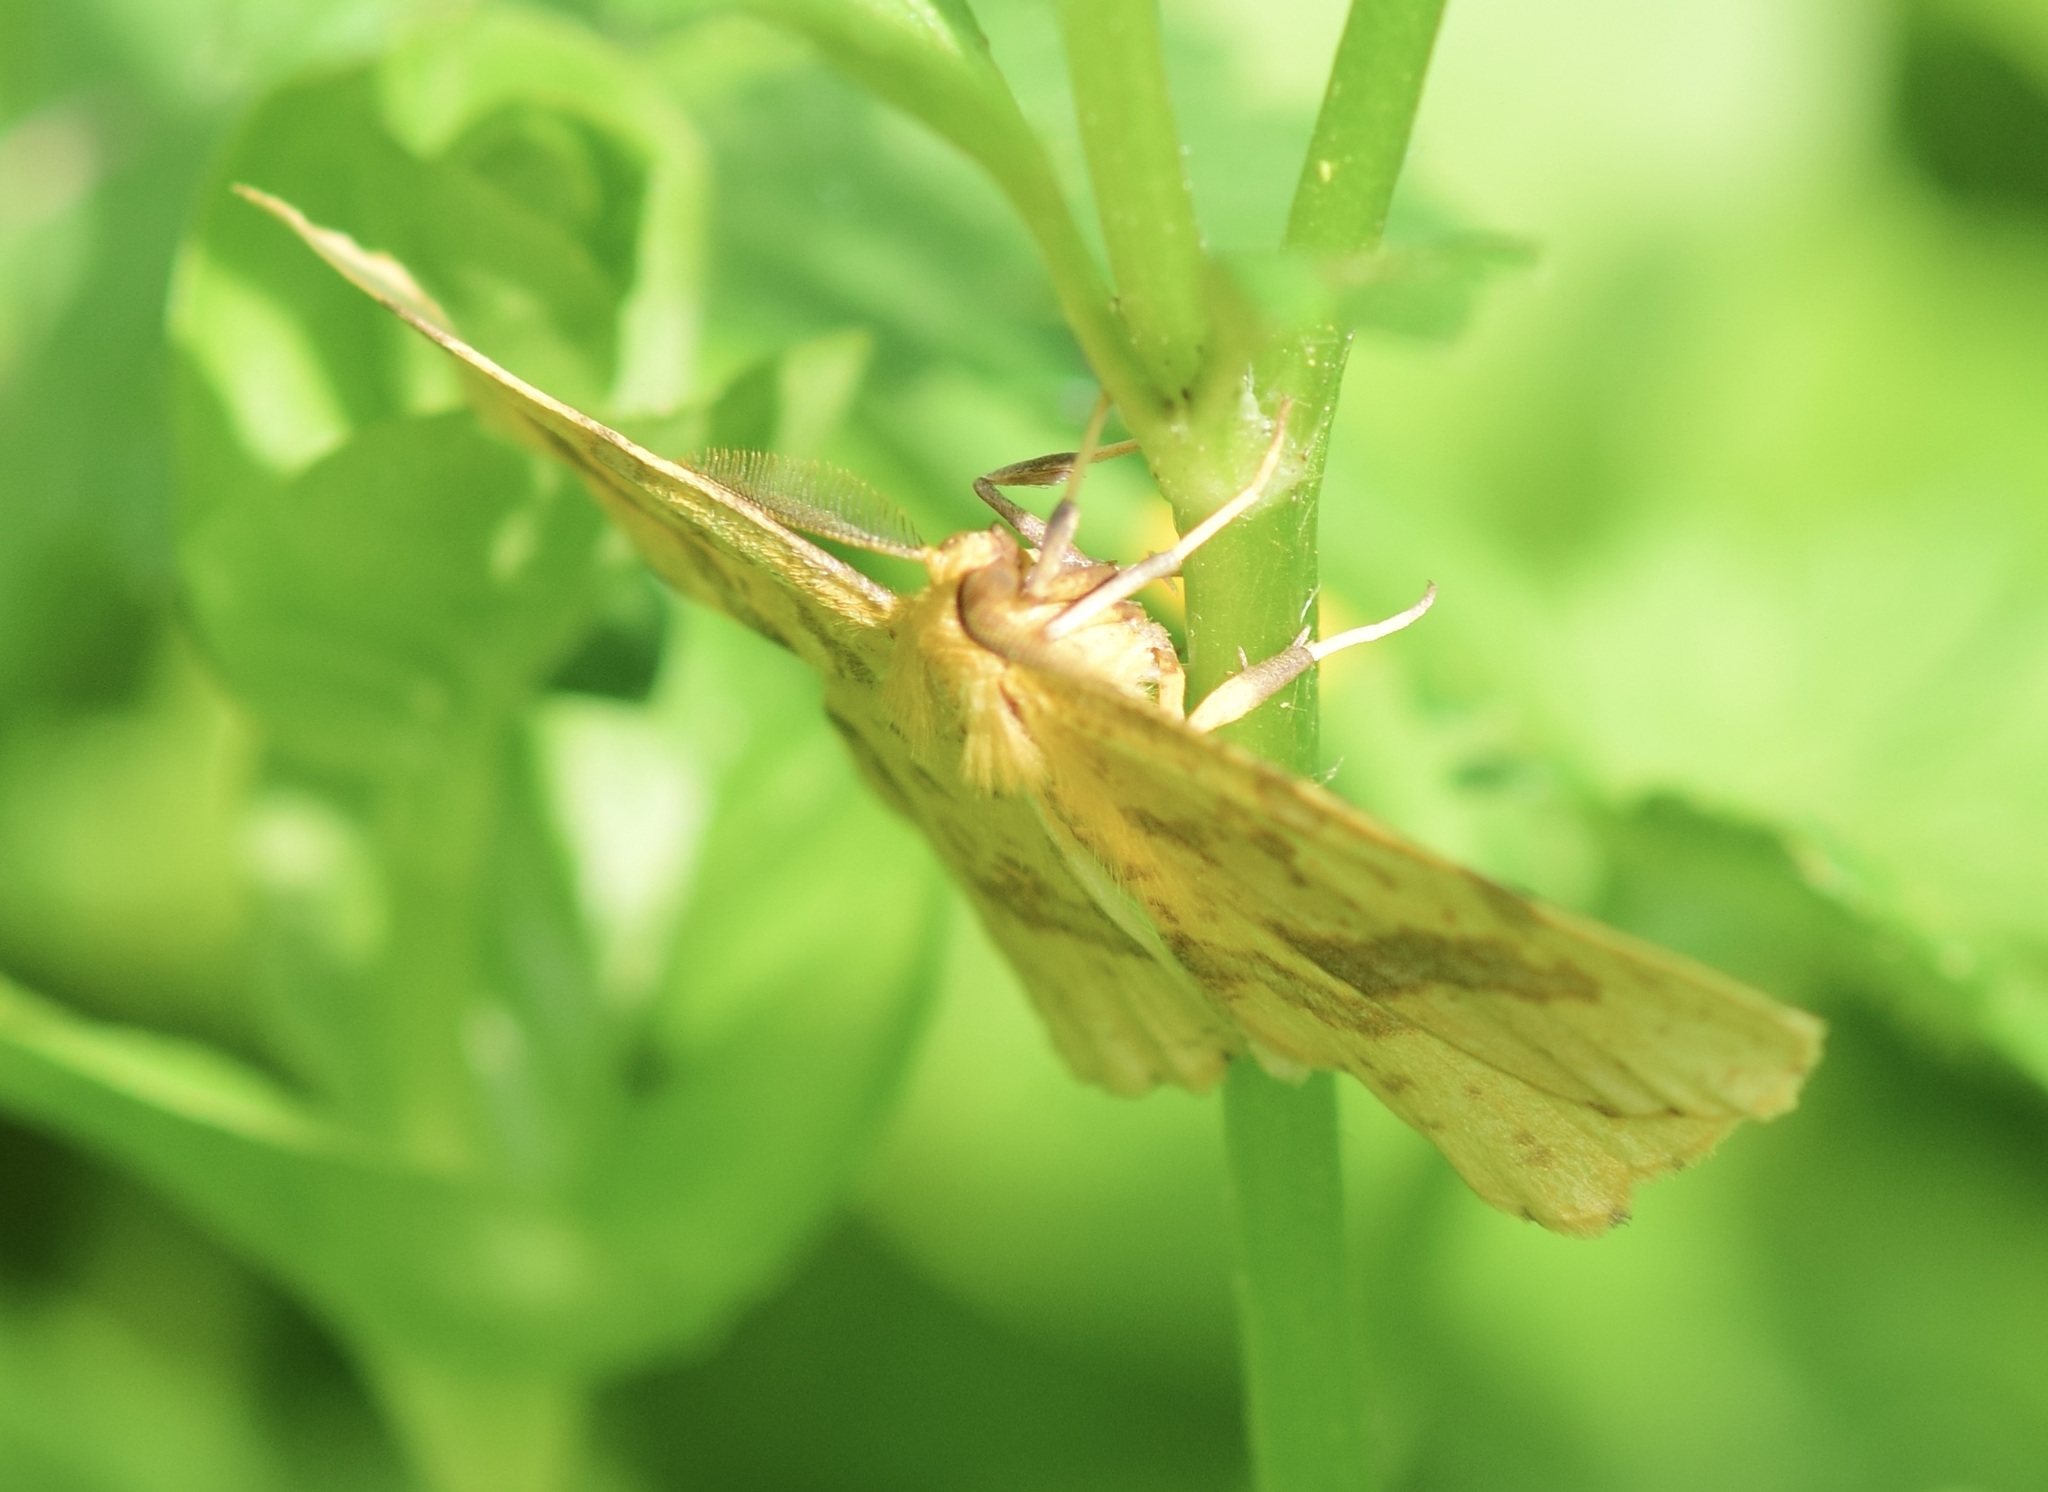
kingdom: Animalia
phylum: Arthropoda
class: Insecta
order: Lepidoptera
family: Geometridae
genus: Xanthotype
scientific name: Xanthotype
